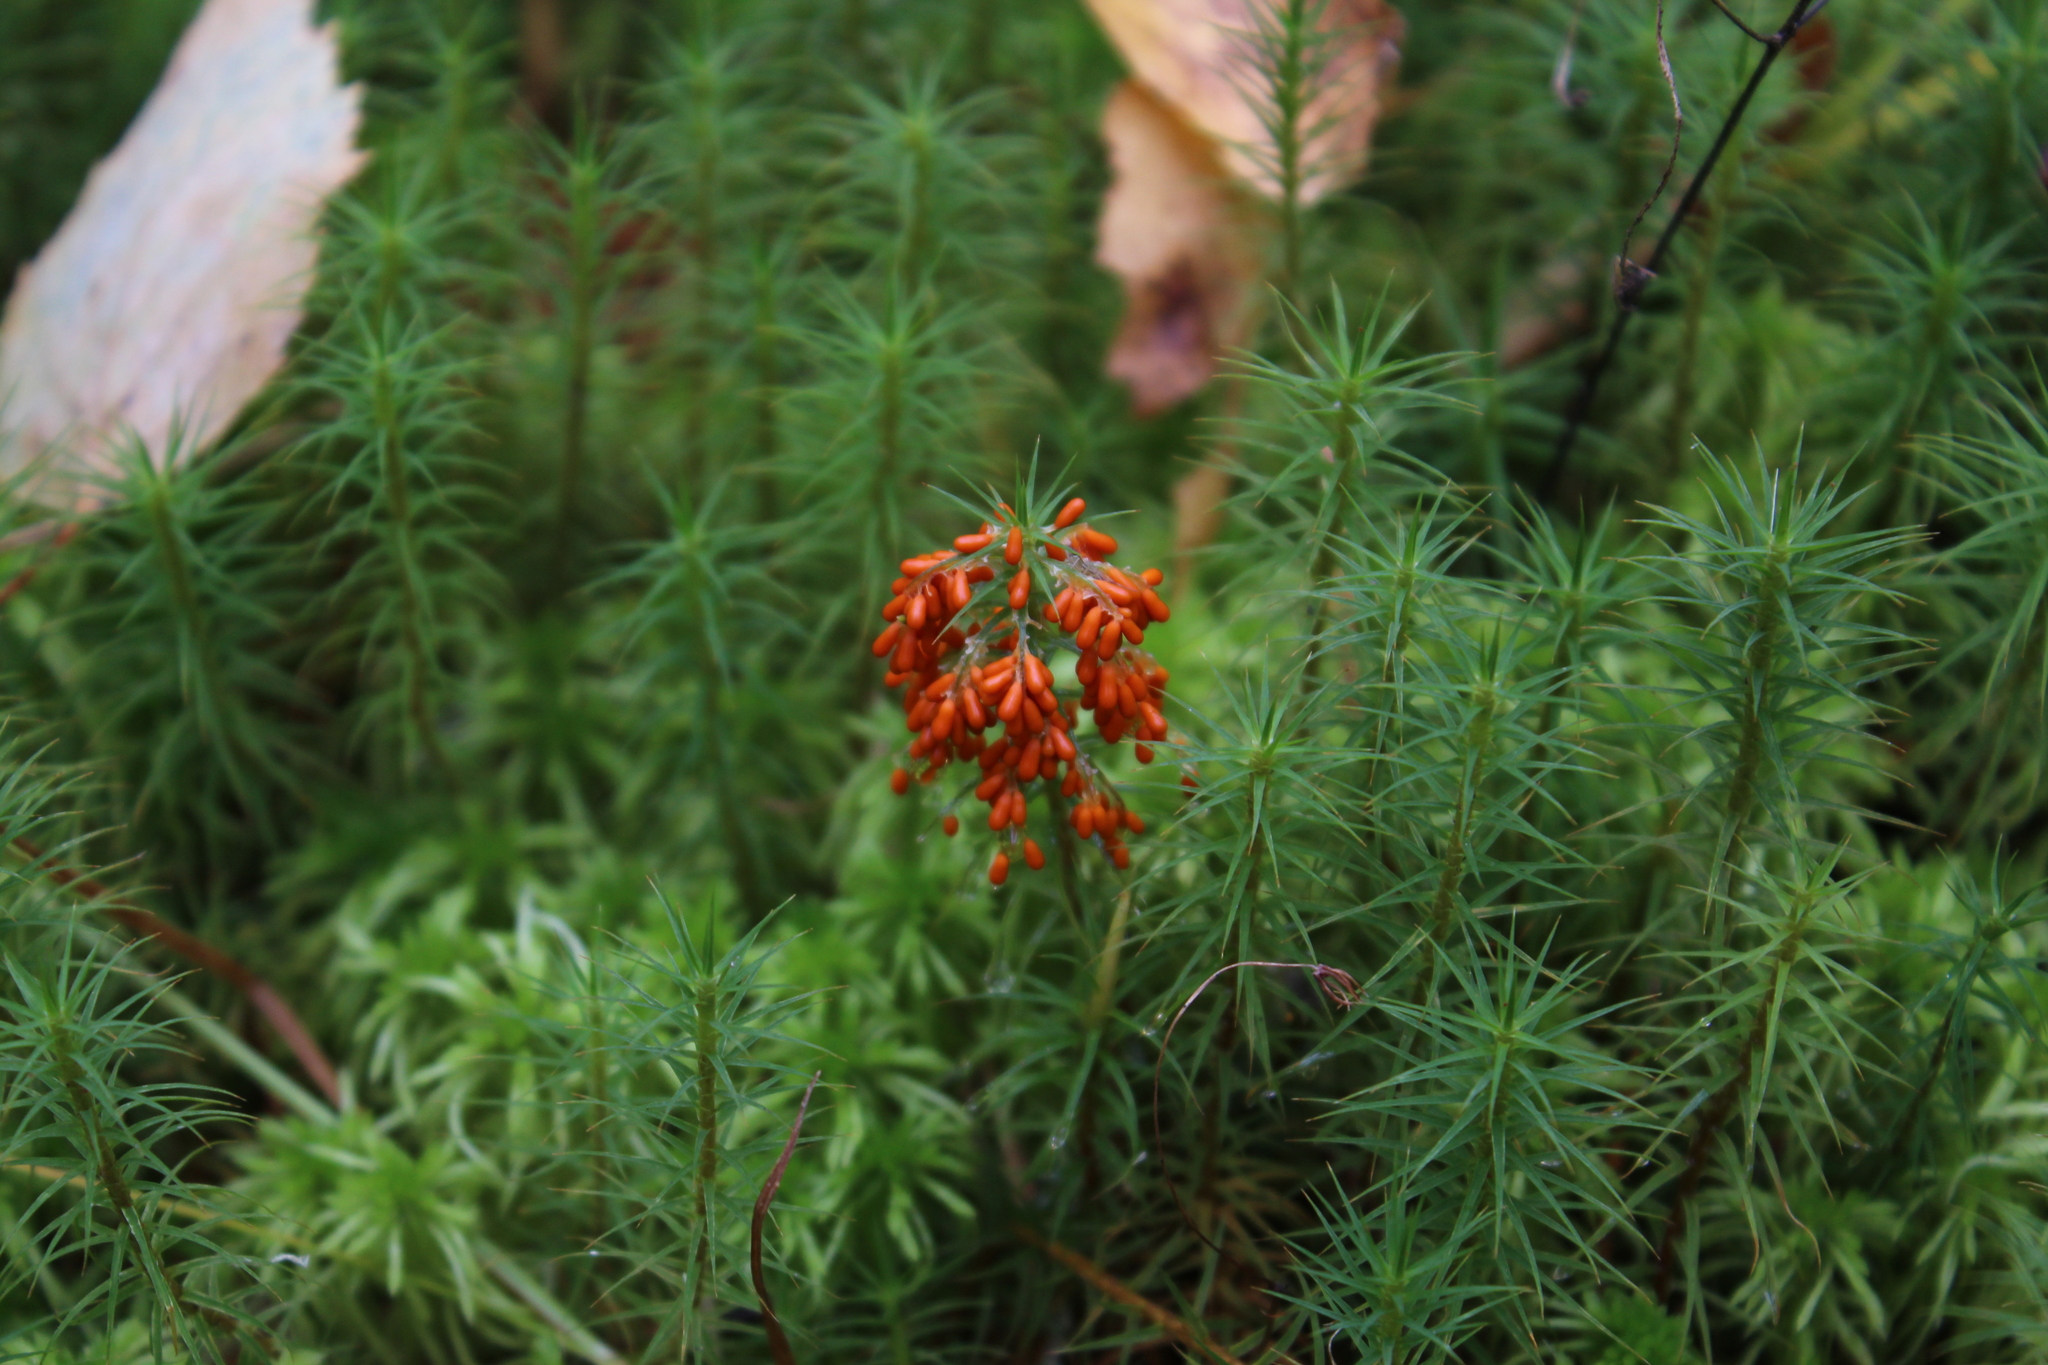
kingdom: Protozoa
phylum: Mycetozoa
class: Myxomycetes
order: Physarales
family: Physaraceae
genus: Leocarpus
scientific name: Leocarpus fragilis
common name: Insect-egg slime
